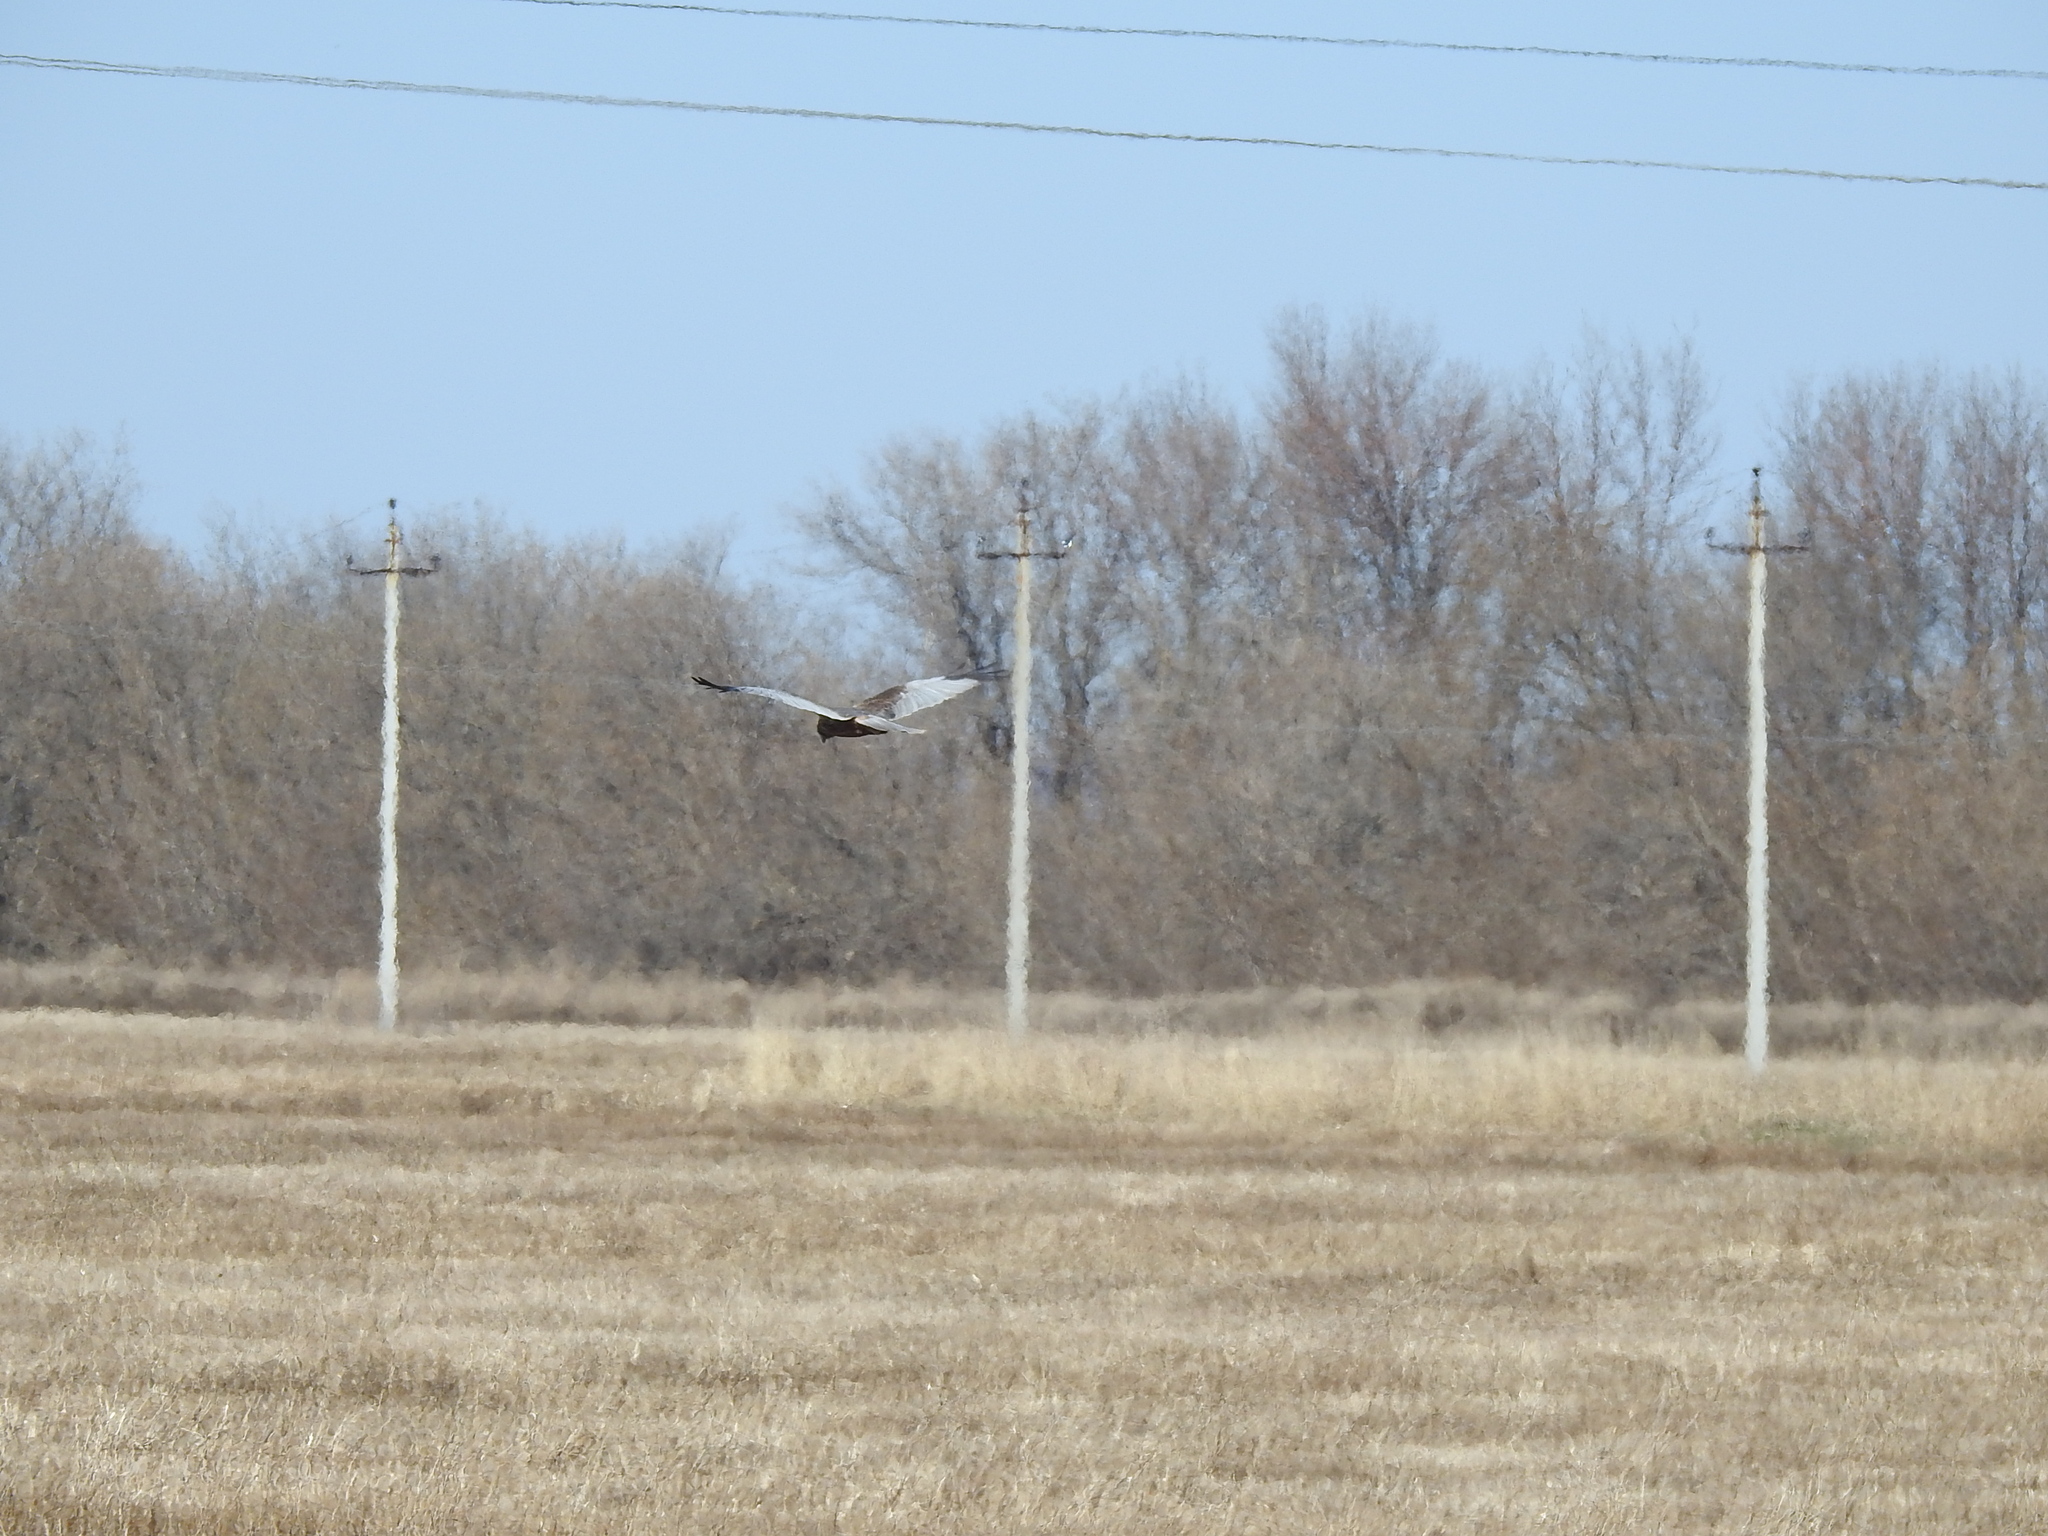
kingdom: Animalia
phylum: Chordata
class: Aves
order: Accipitriformes
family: Accipitridae
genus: Circus
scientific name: Circus aeruginosus
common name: Western marsh harrier
